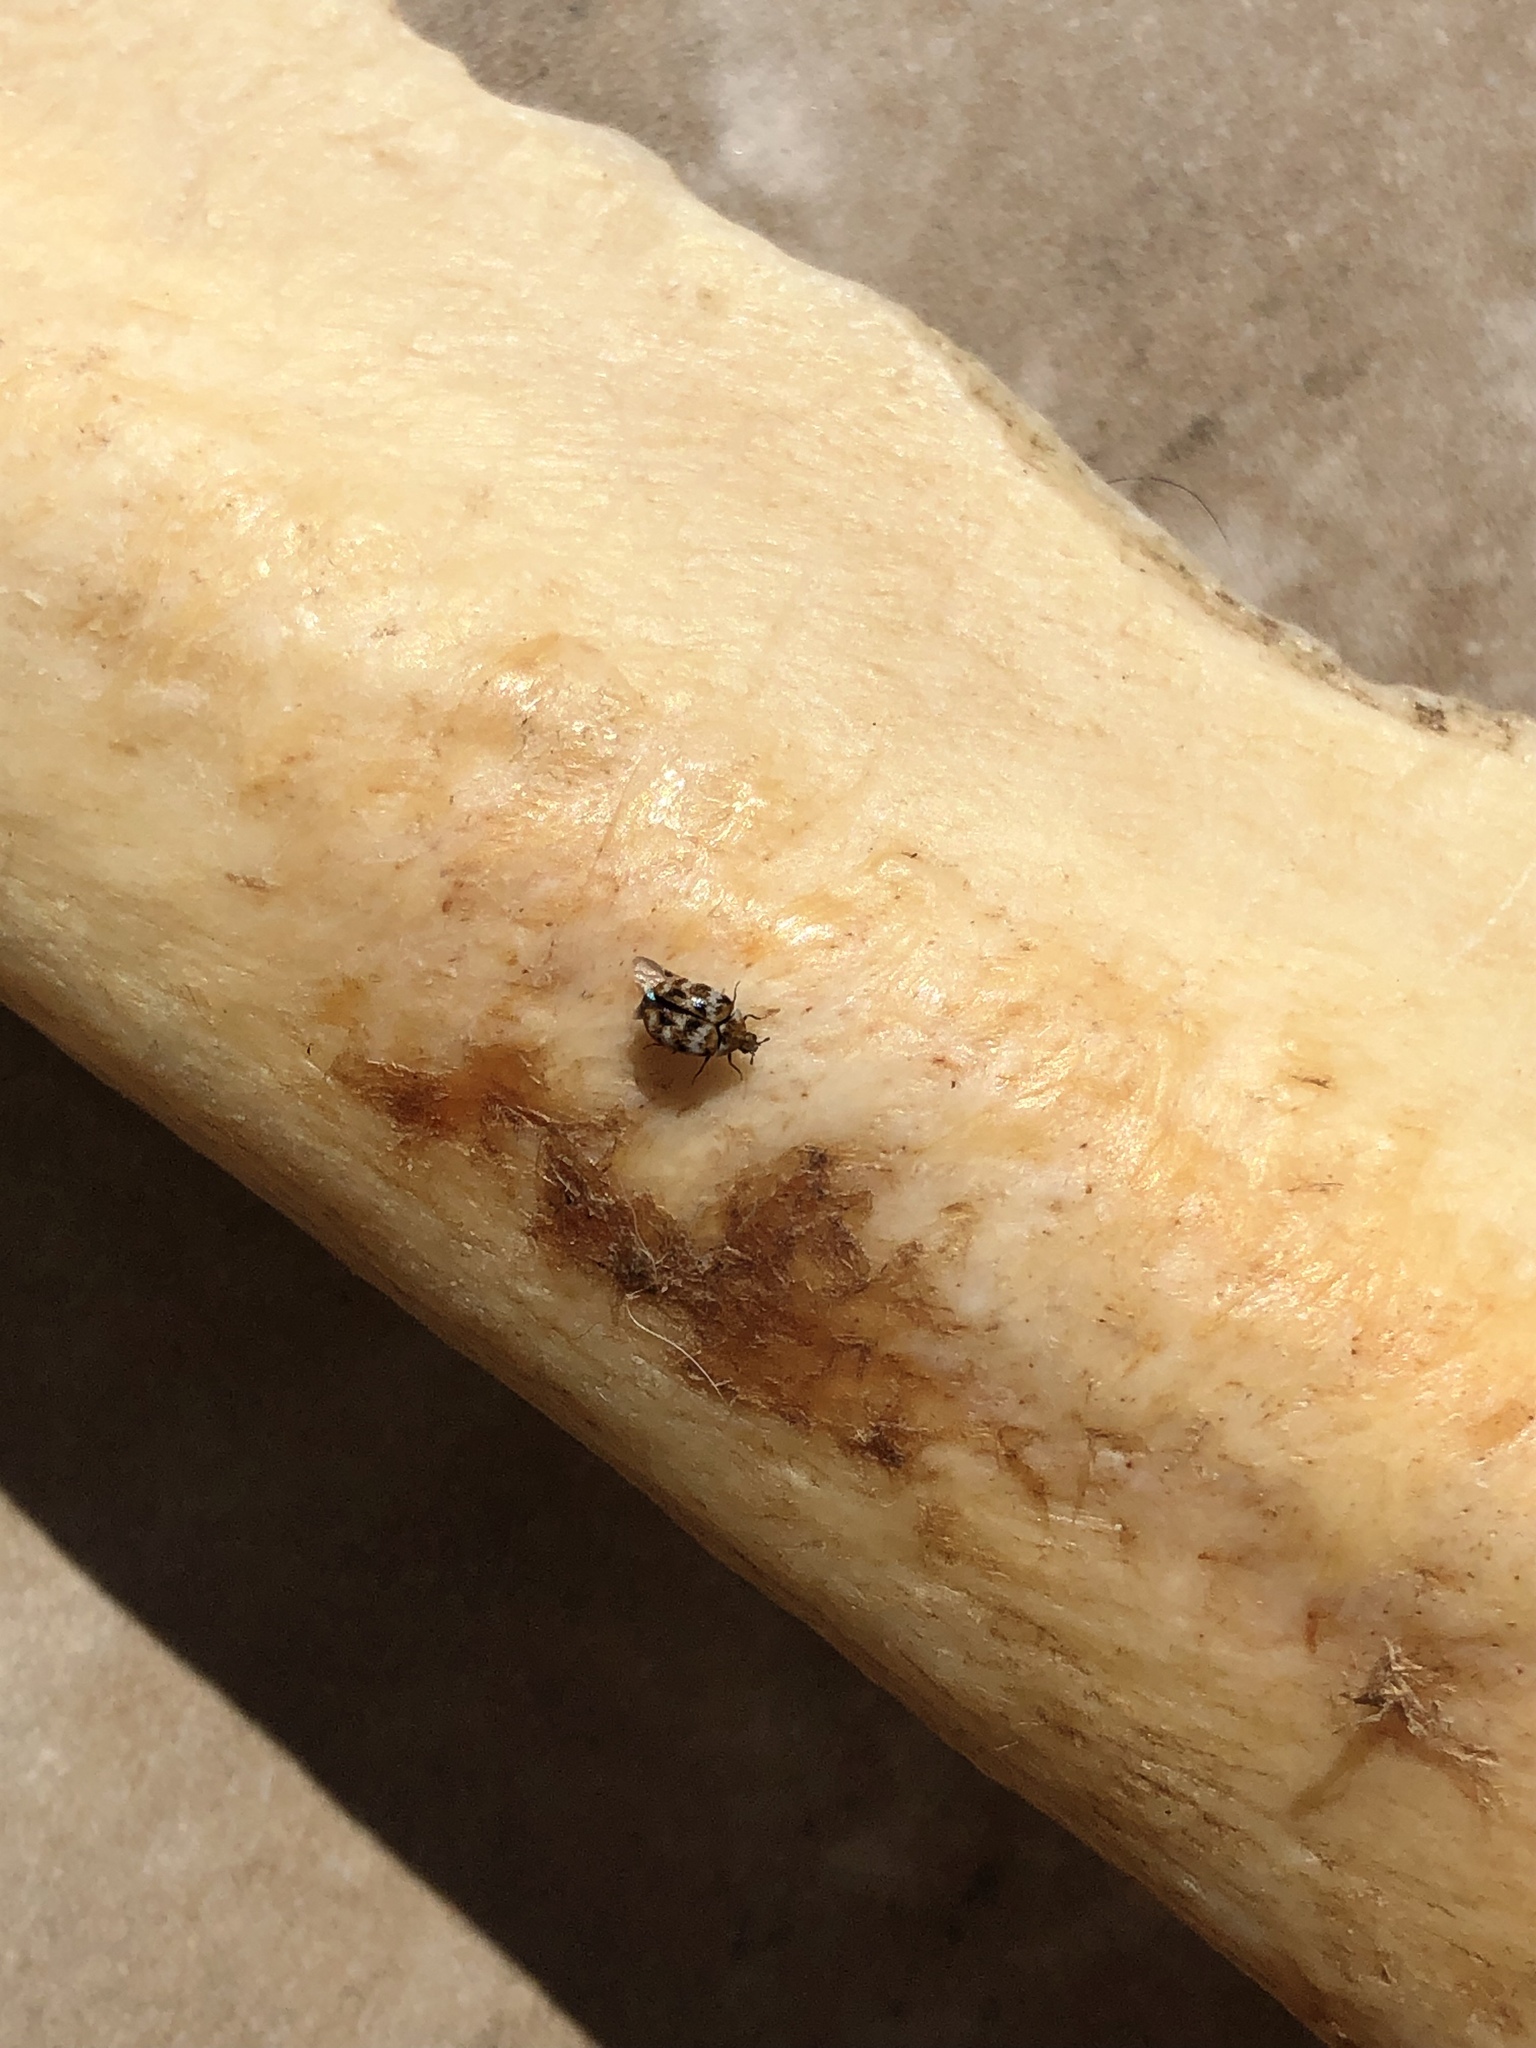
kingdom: Animalia
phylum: Arthropoda
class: Insecta
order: Coleoptera
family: Dermestidae
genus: Anthrenus
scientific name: Anthrenus verbasci
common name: Varied carpet beetle
